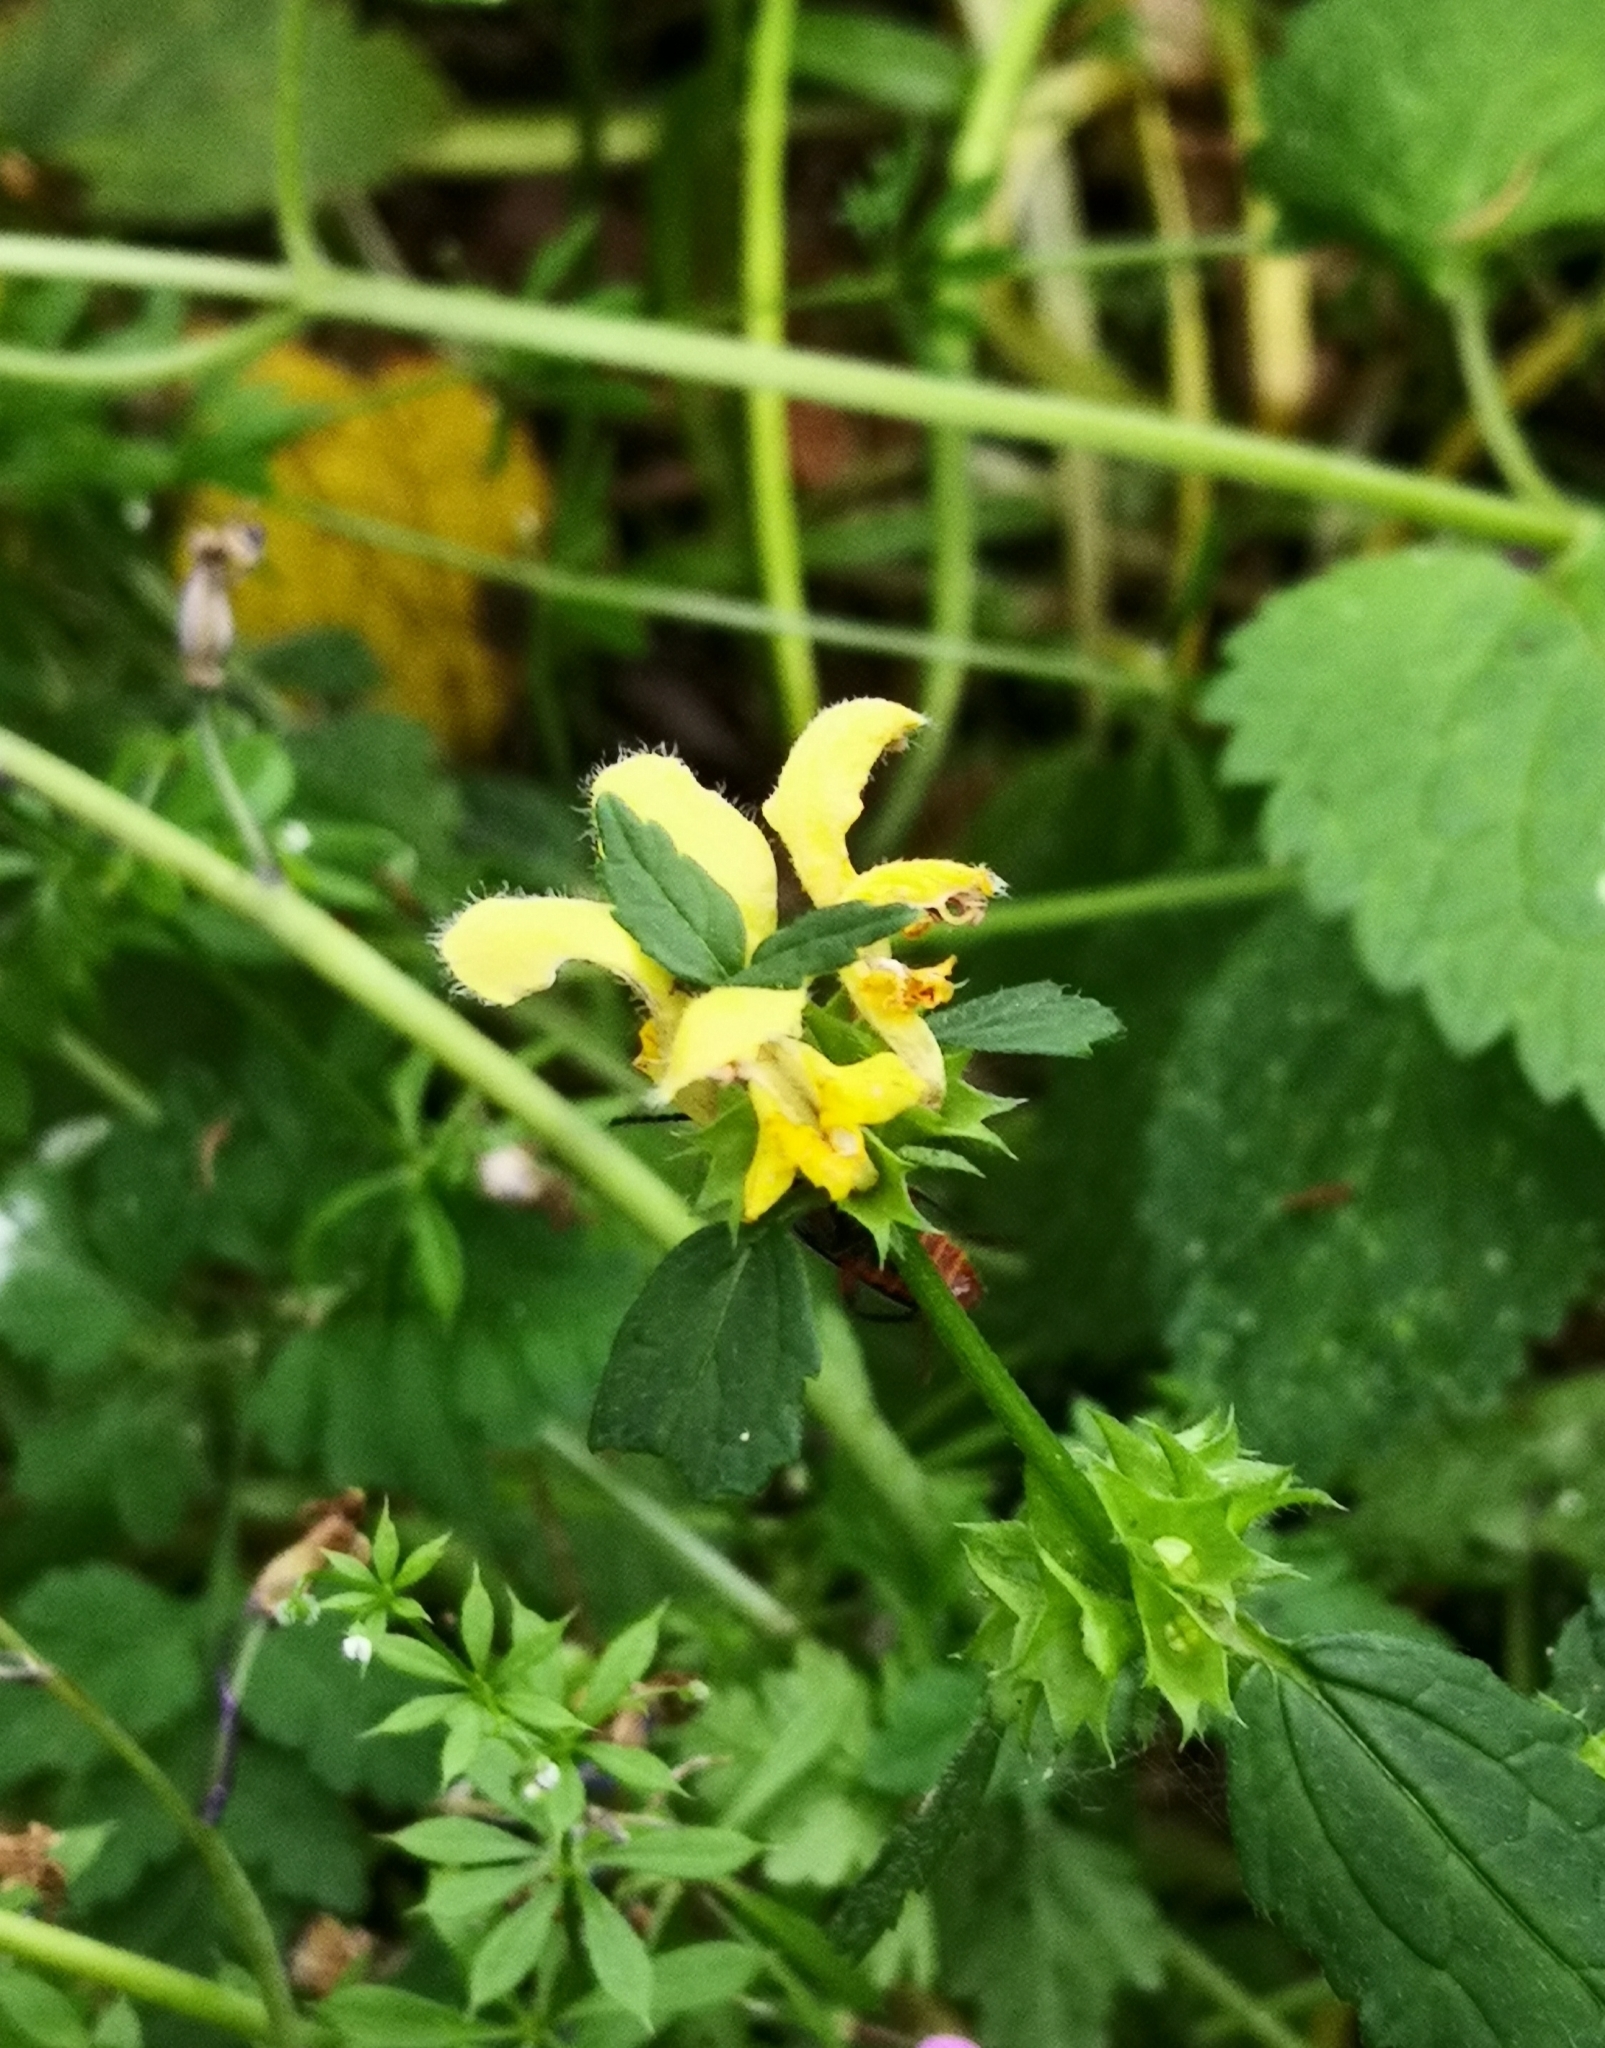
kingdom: Plantae
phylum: Tracheophyta
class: Magnoliopsida
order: Lamiales
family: Lamiaceae
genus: Lamium
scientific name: Lamium galeobdolon
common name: Yellow archangel
